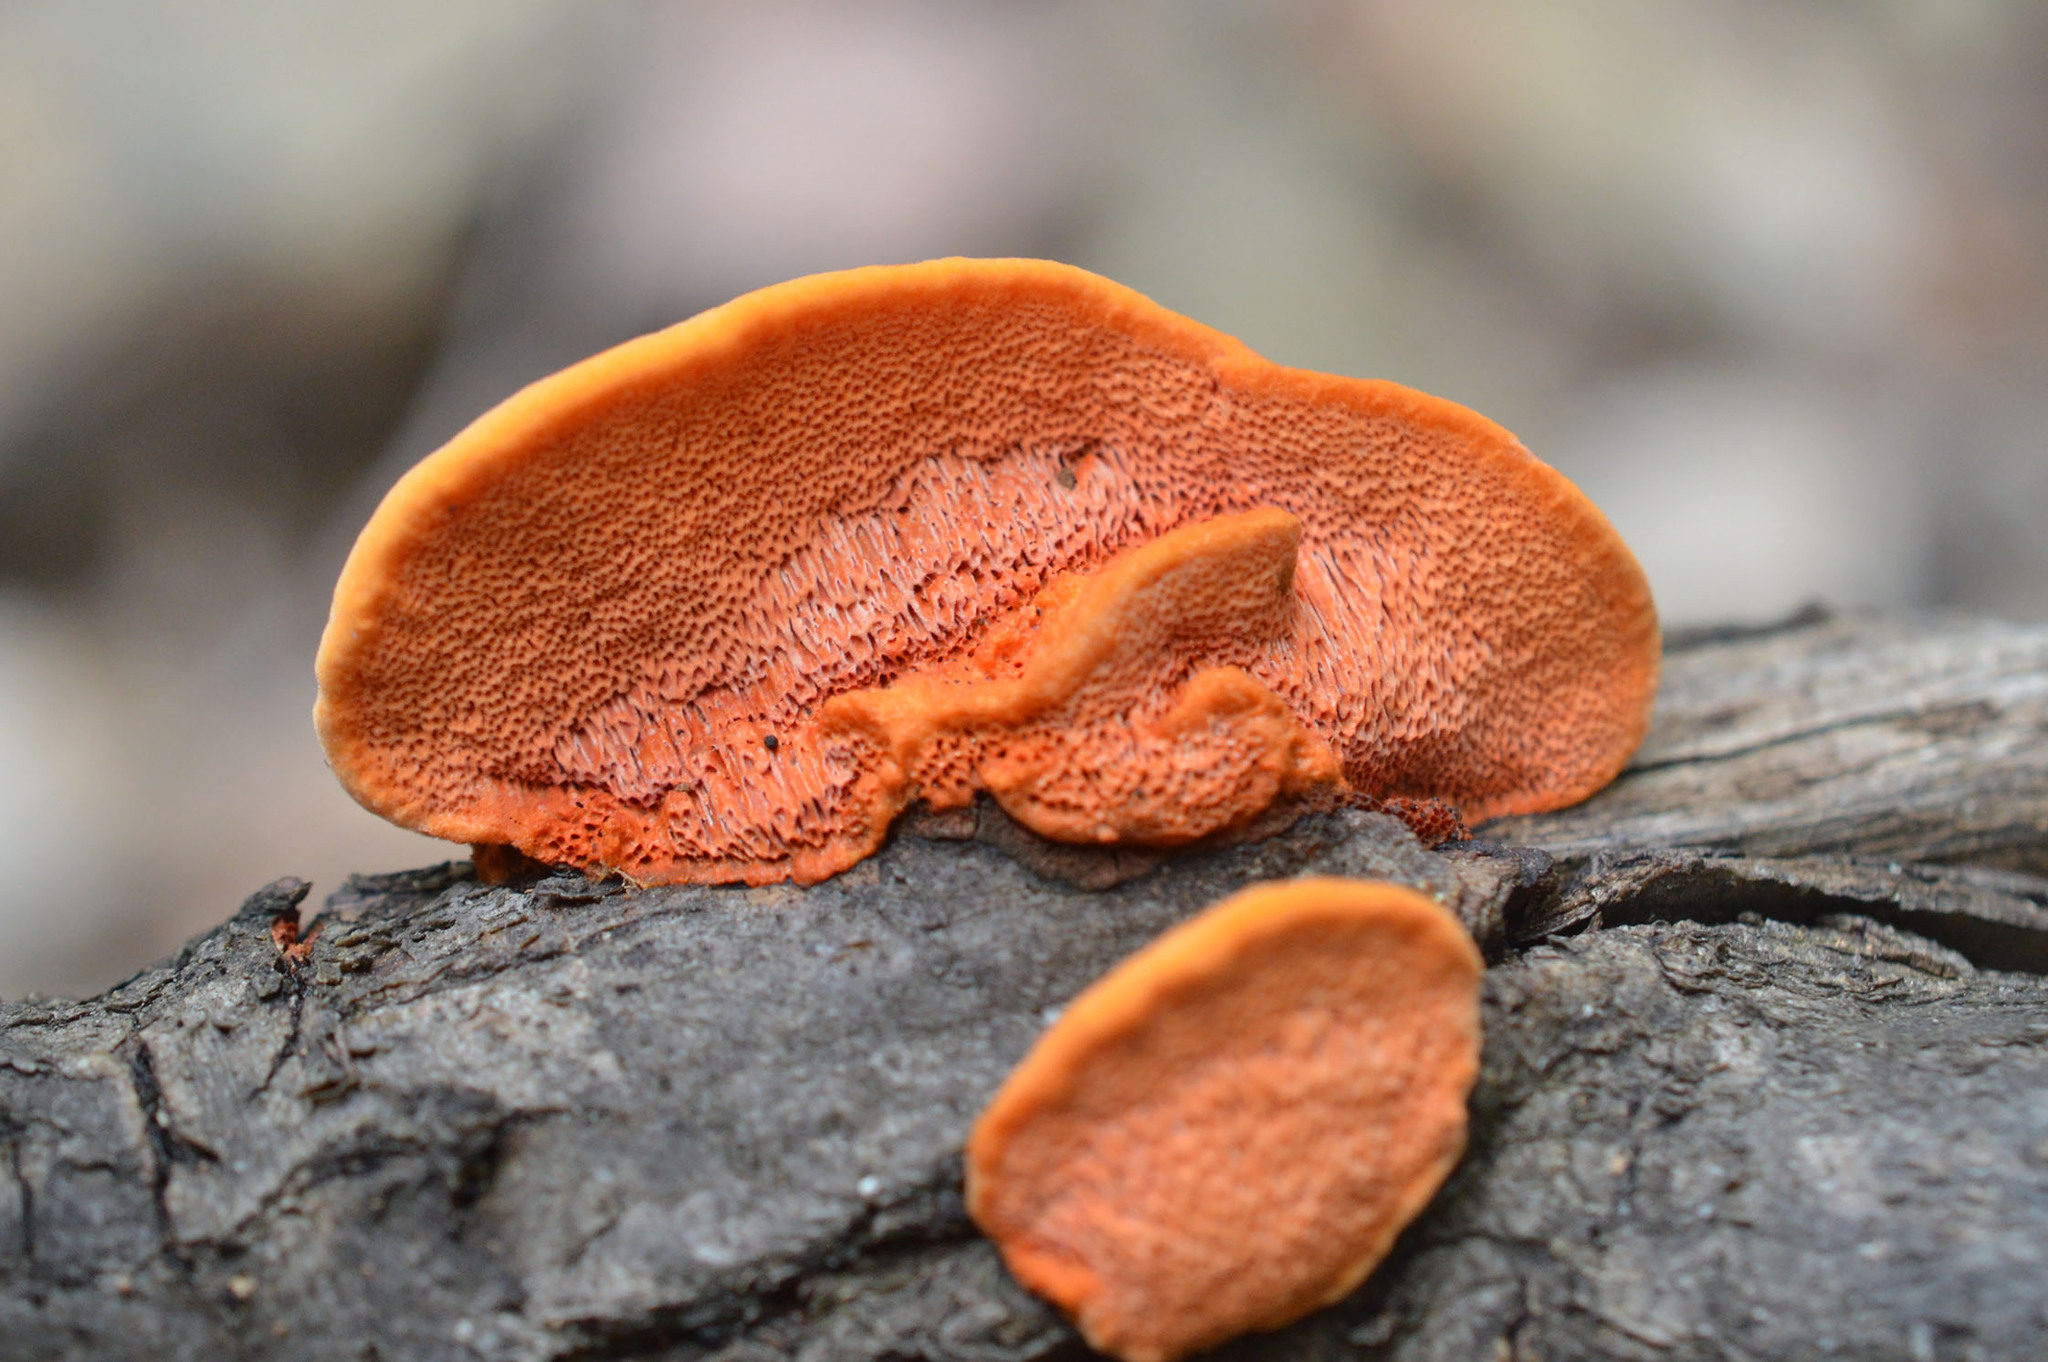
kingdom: Fungi
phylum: Basidiomycota
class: Agaricomycetes
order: Polyporales
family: Polyporaceae
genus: Trametes
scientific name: Trametes cinnabarina
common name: Northern cinnabar polypore
